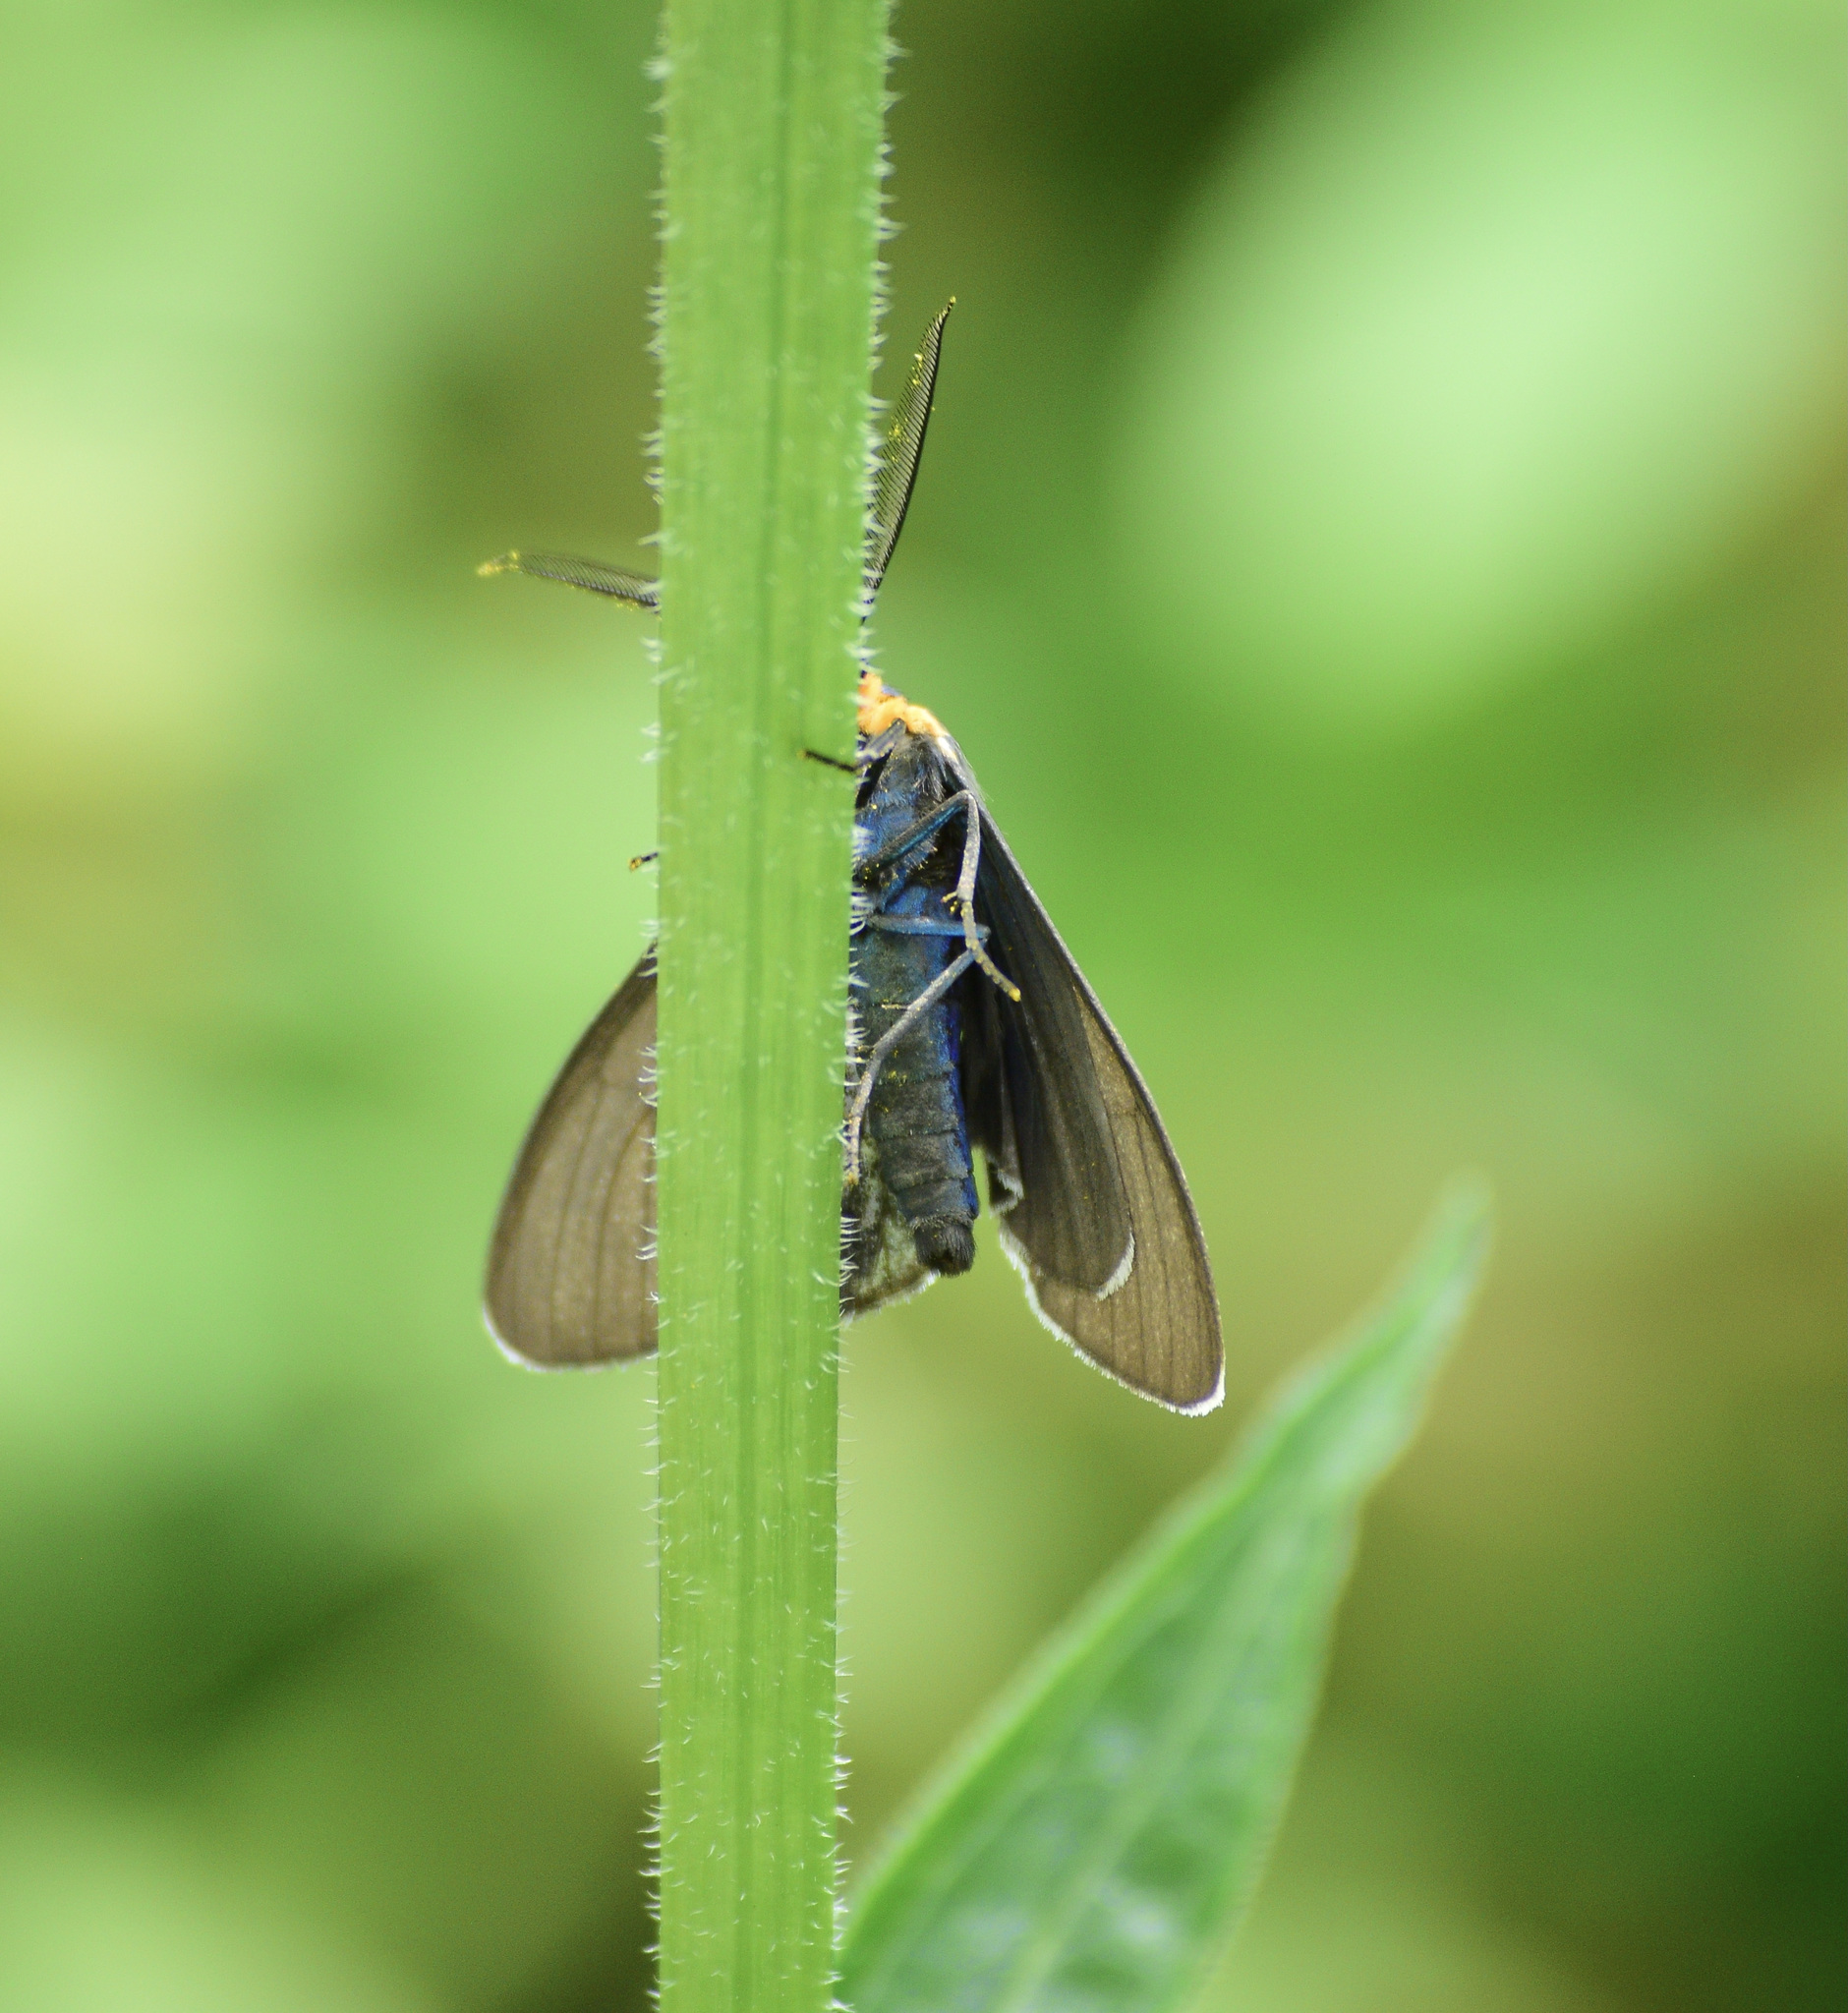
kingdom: Animalia
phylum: Arthropoda
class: Insecta
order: Lepidoptera
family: Erebidae
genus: Ctenucha
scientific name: Ctenucha virginica
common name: Virginia ctenucha moth
